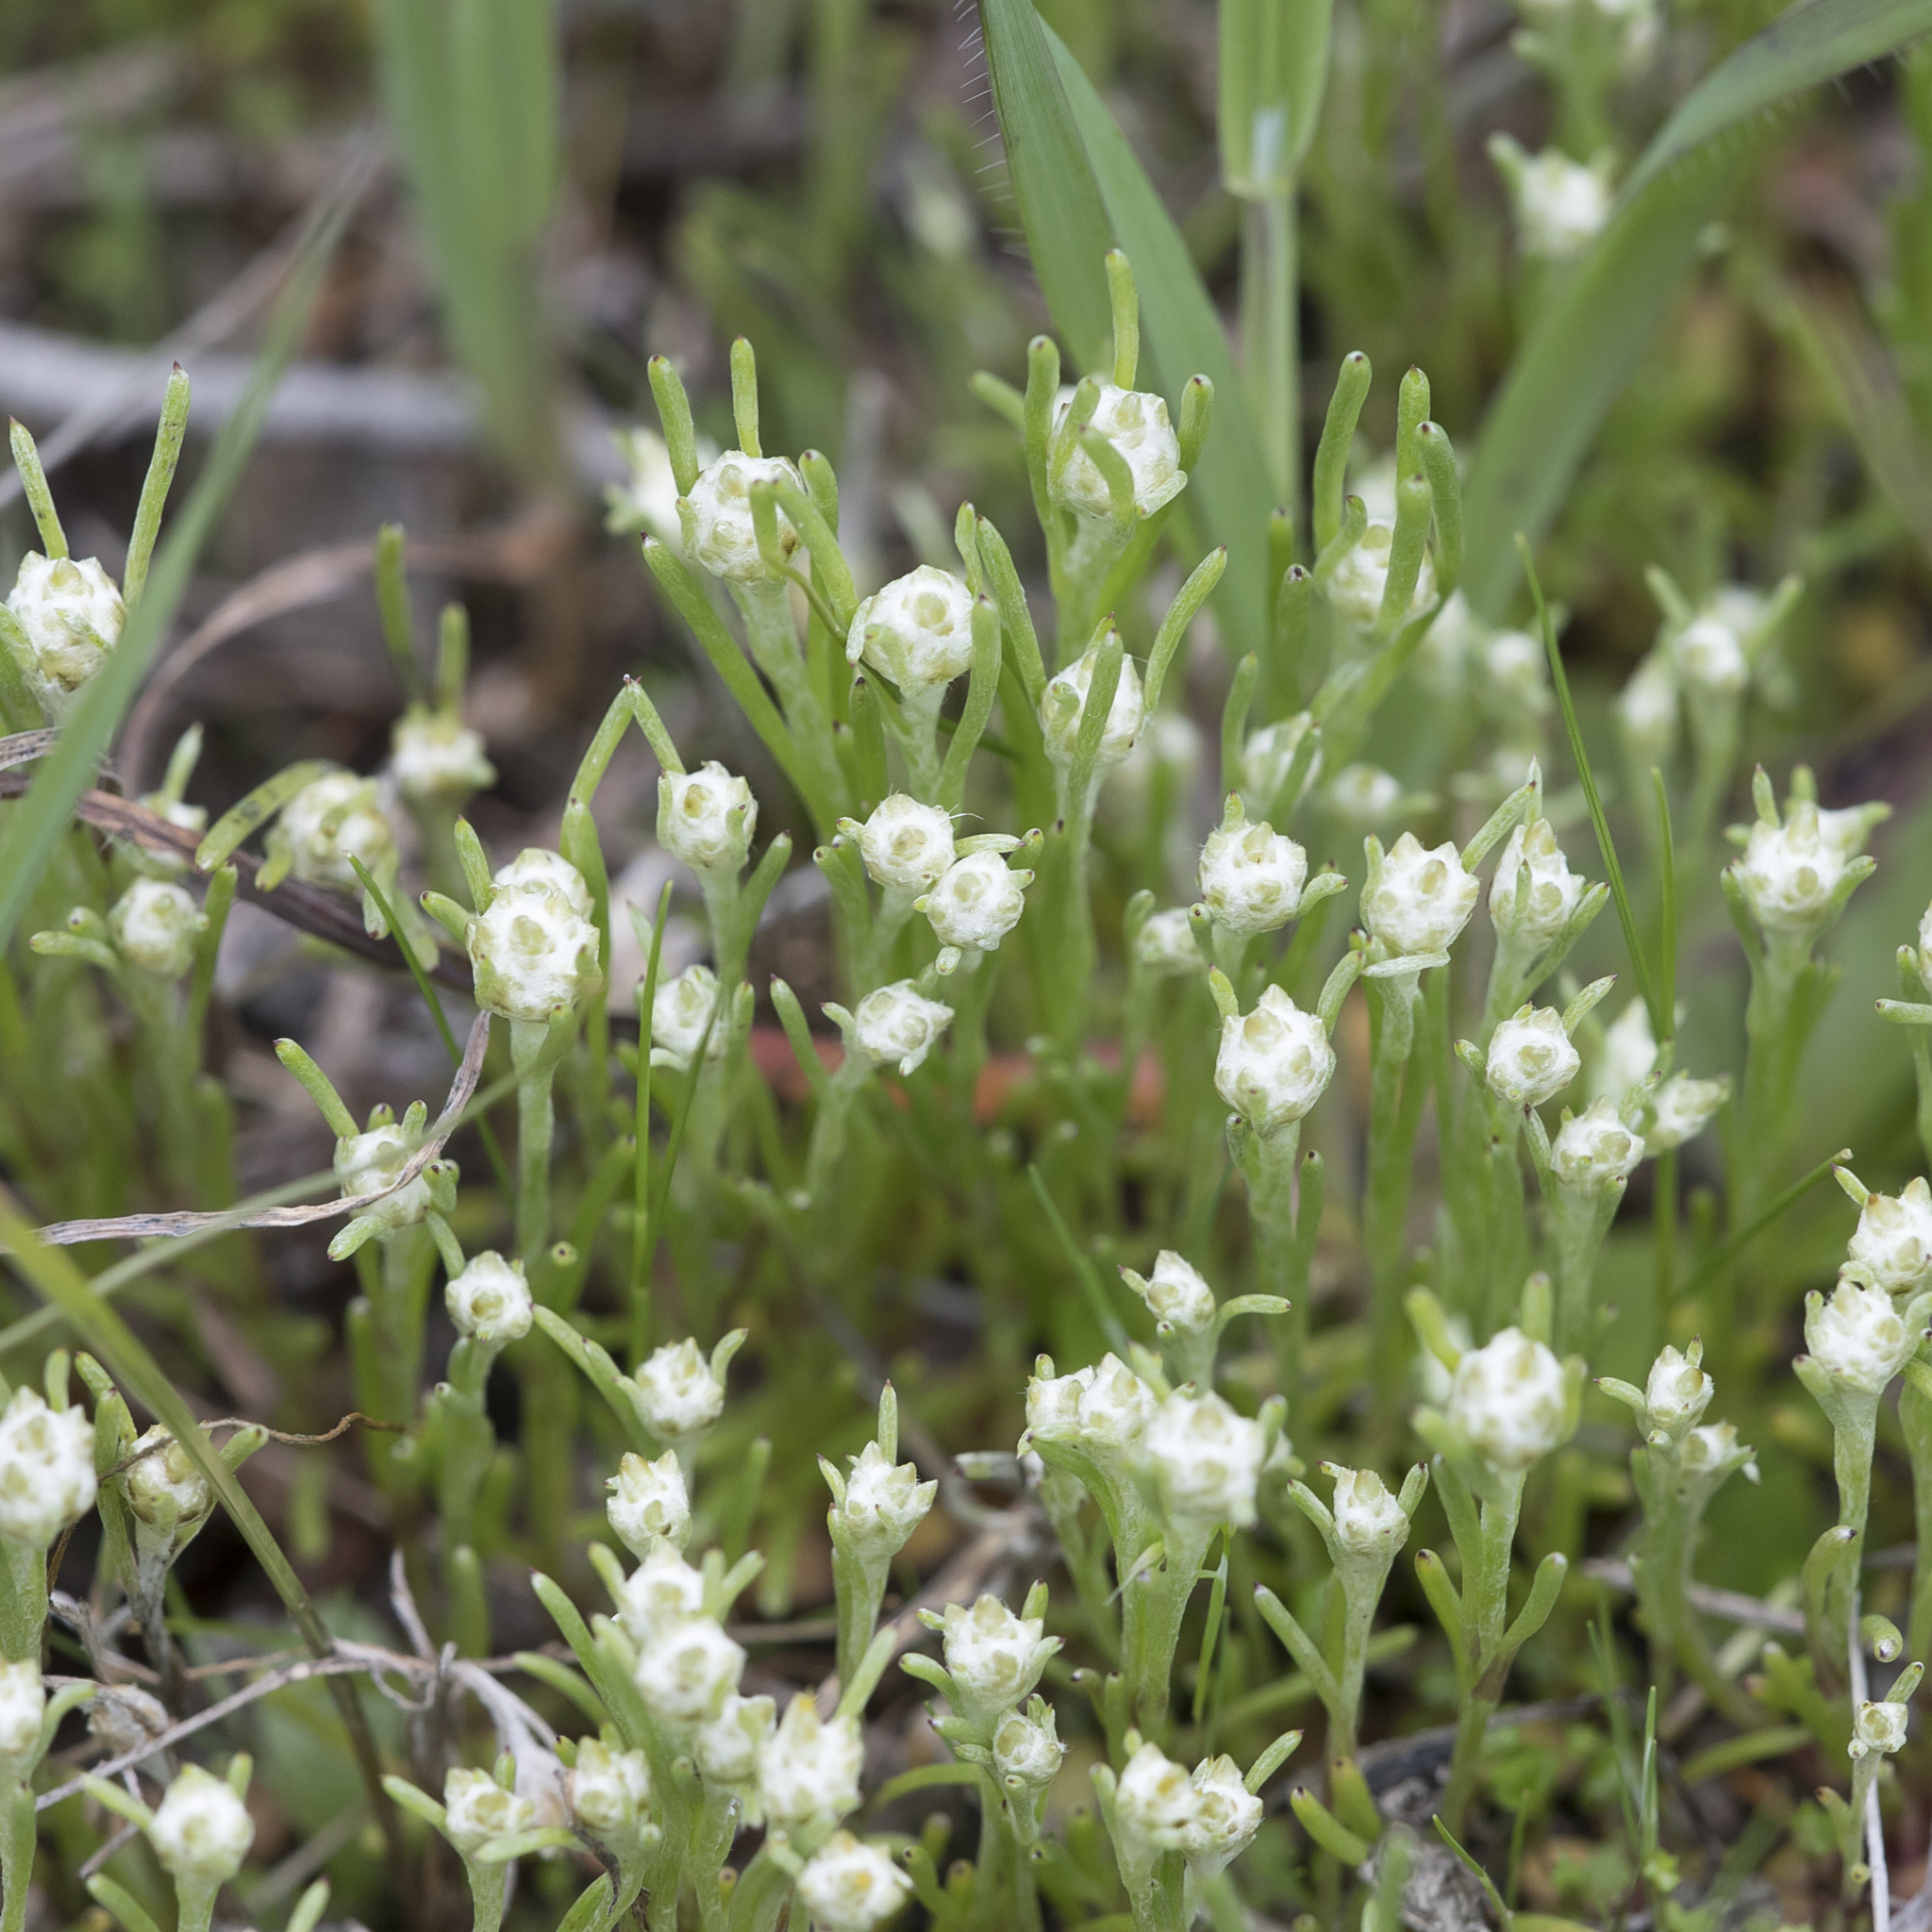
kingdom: Plantae
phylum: Tracheophyta
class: Magnoliopsida
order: Asterales
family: Asteraceae
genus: Blennospora
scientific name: Blennospora drummondii
